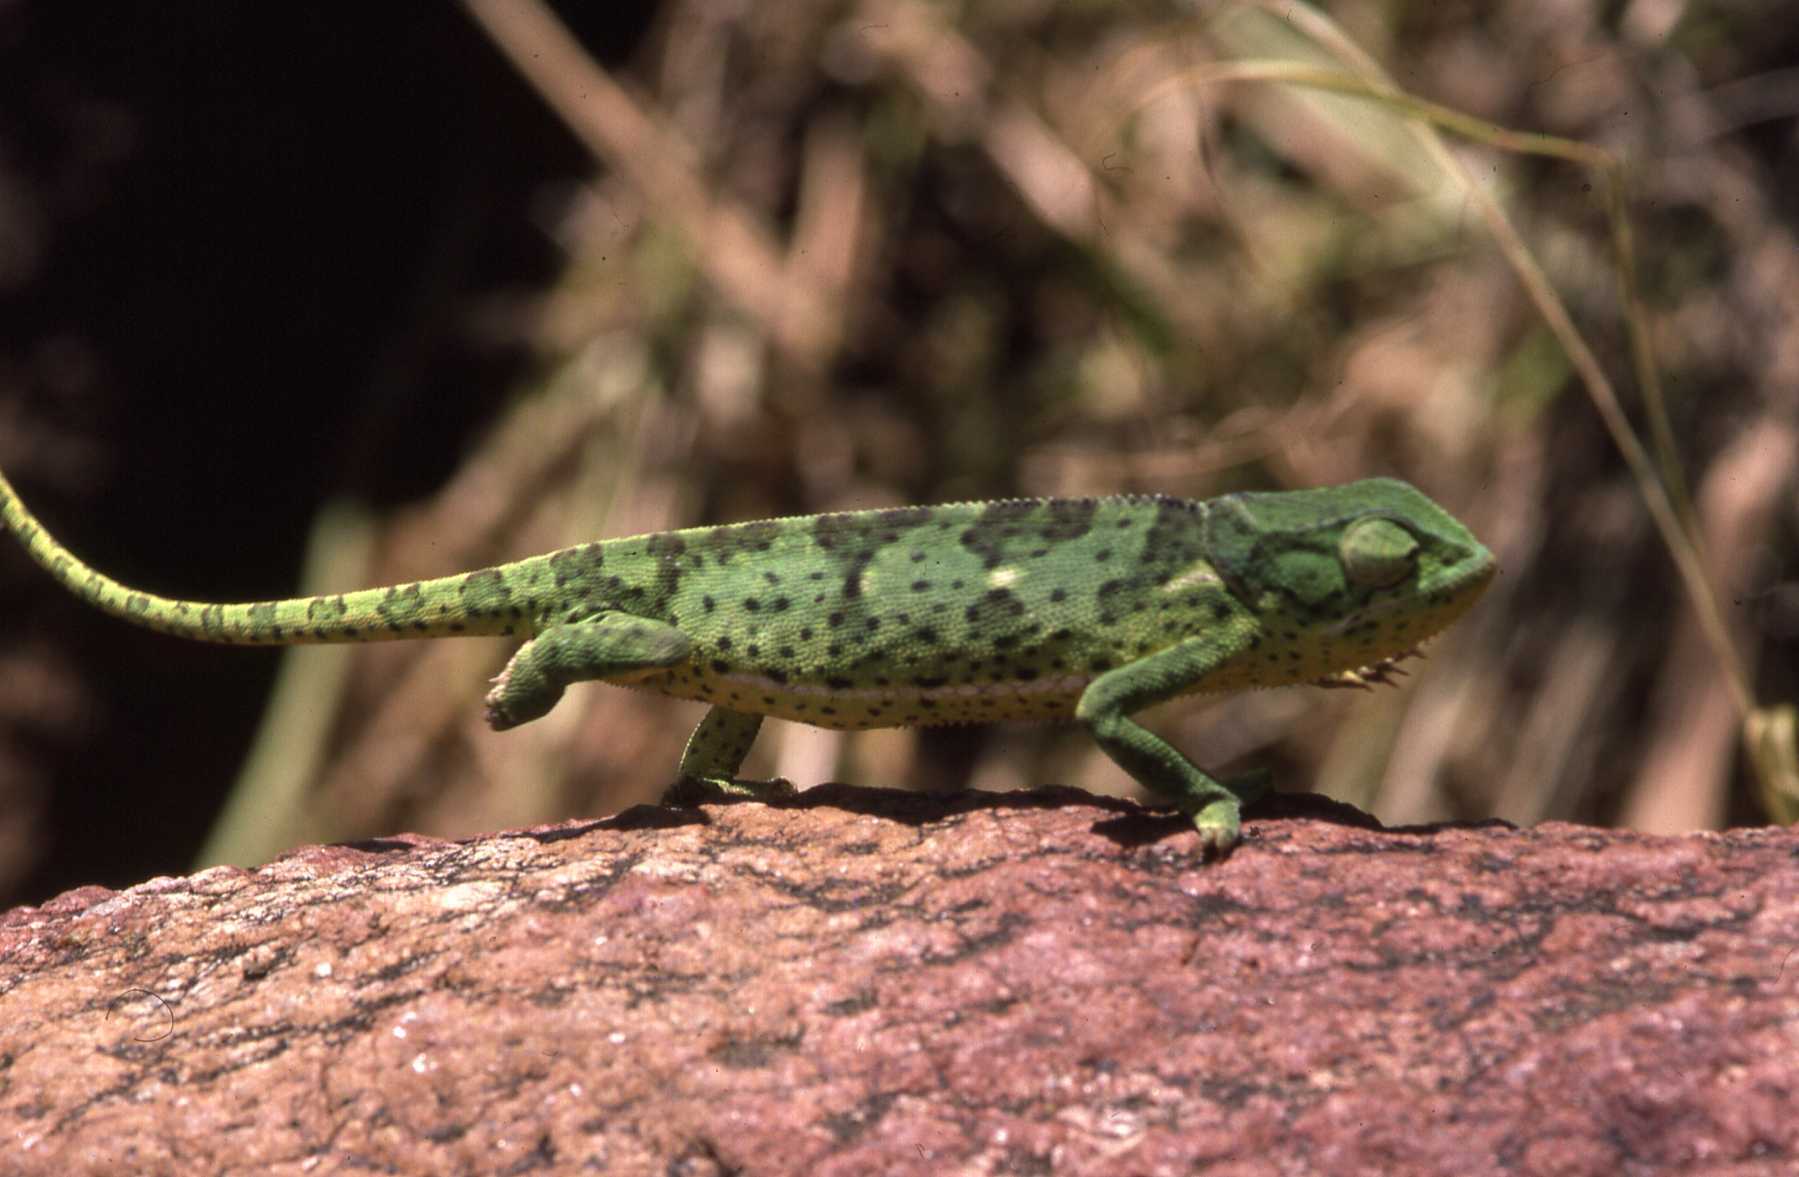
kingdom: Animalia
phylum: Chordata
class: Squamata
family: Chamaeleonidae
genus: Chamaeleo
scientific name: Chamaeleo dilepis
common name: Flapneck chameleon
